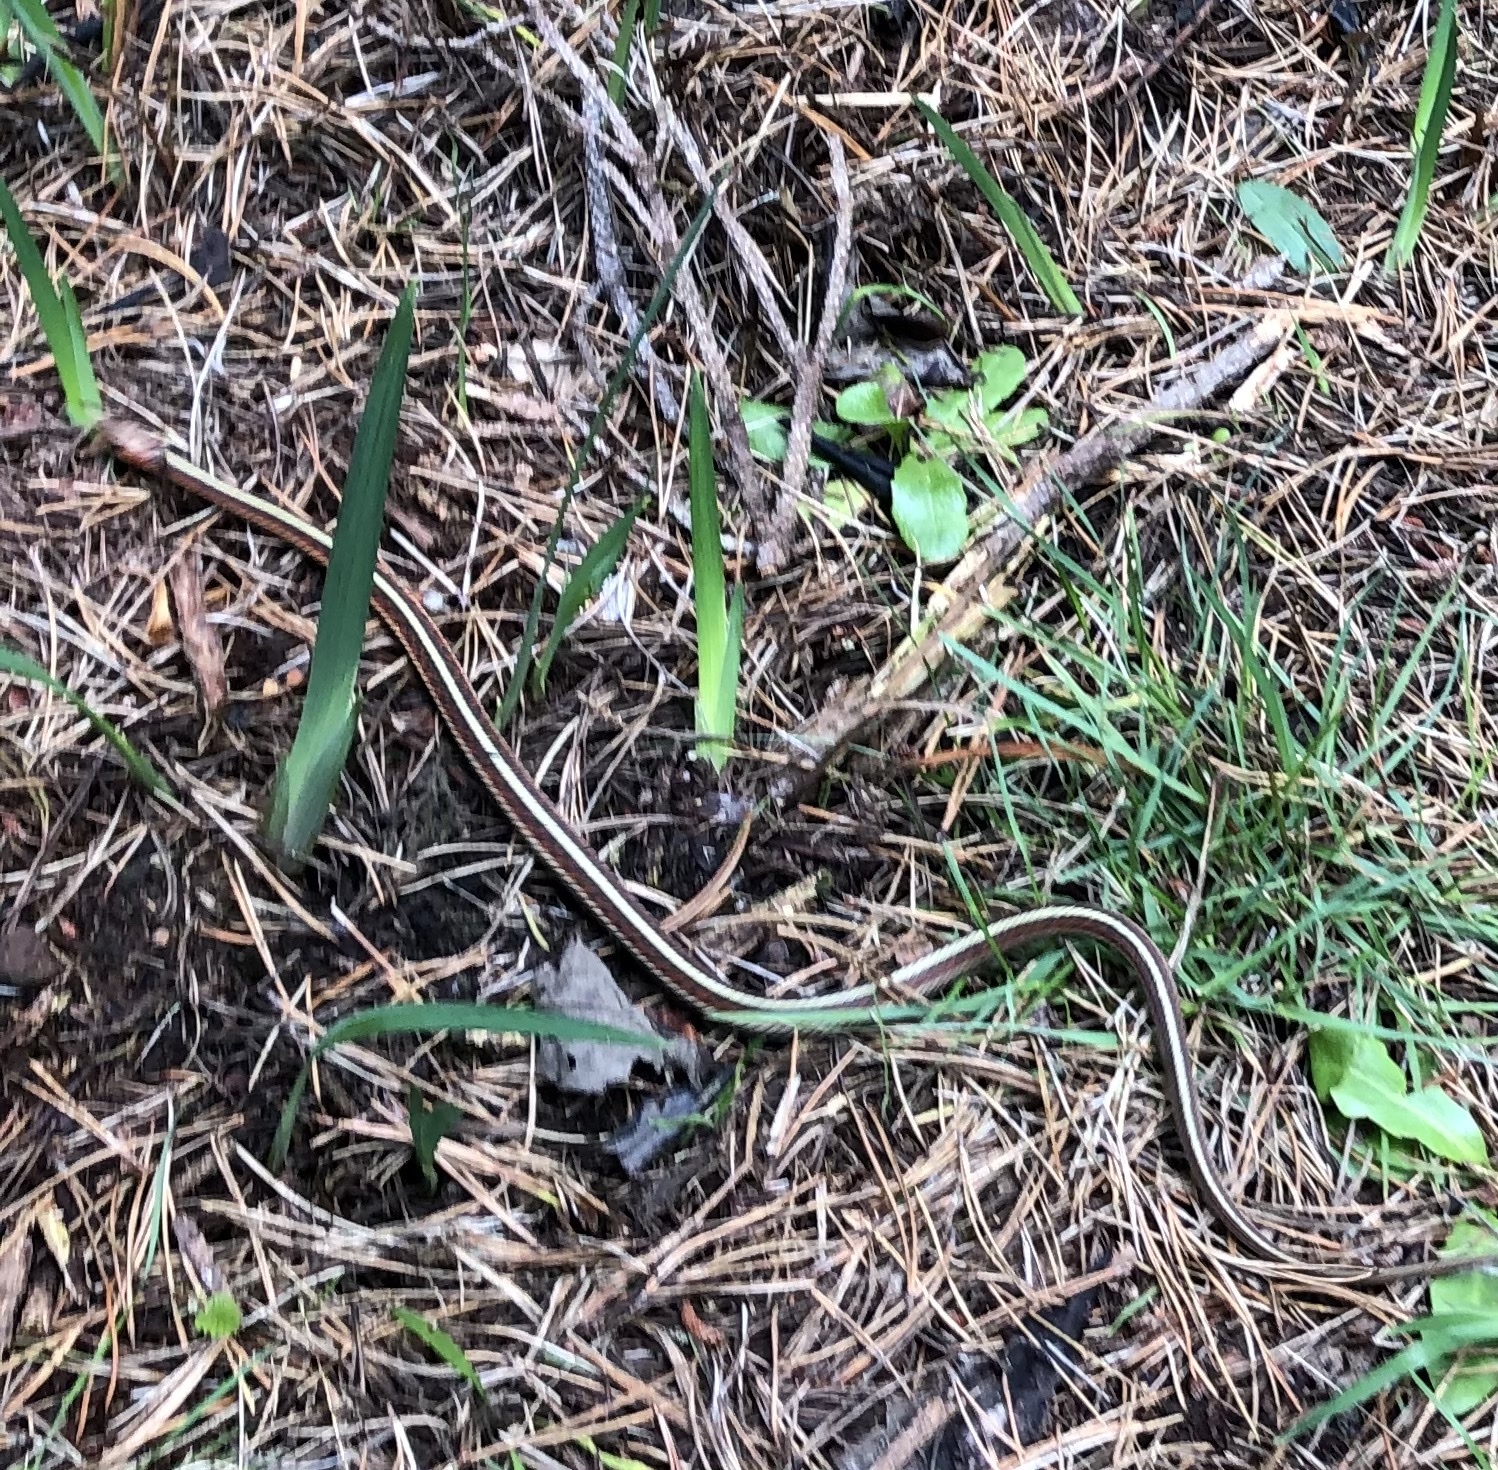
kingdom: Animalia
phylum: Chordata
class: Squamata
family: Colubridae
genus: Thamnophis
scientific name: Thamnophis sirtalis
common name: Common garter snake
